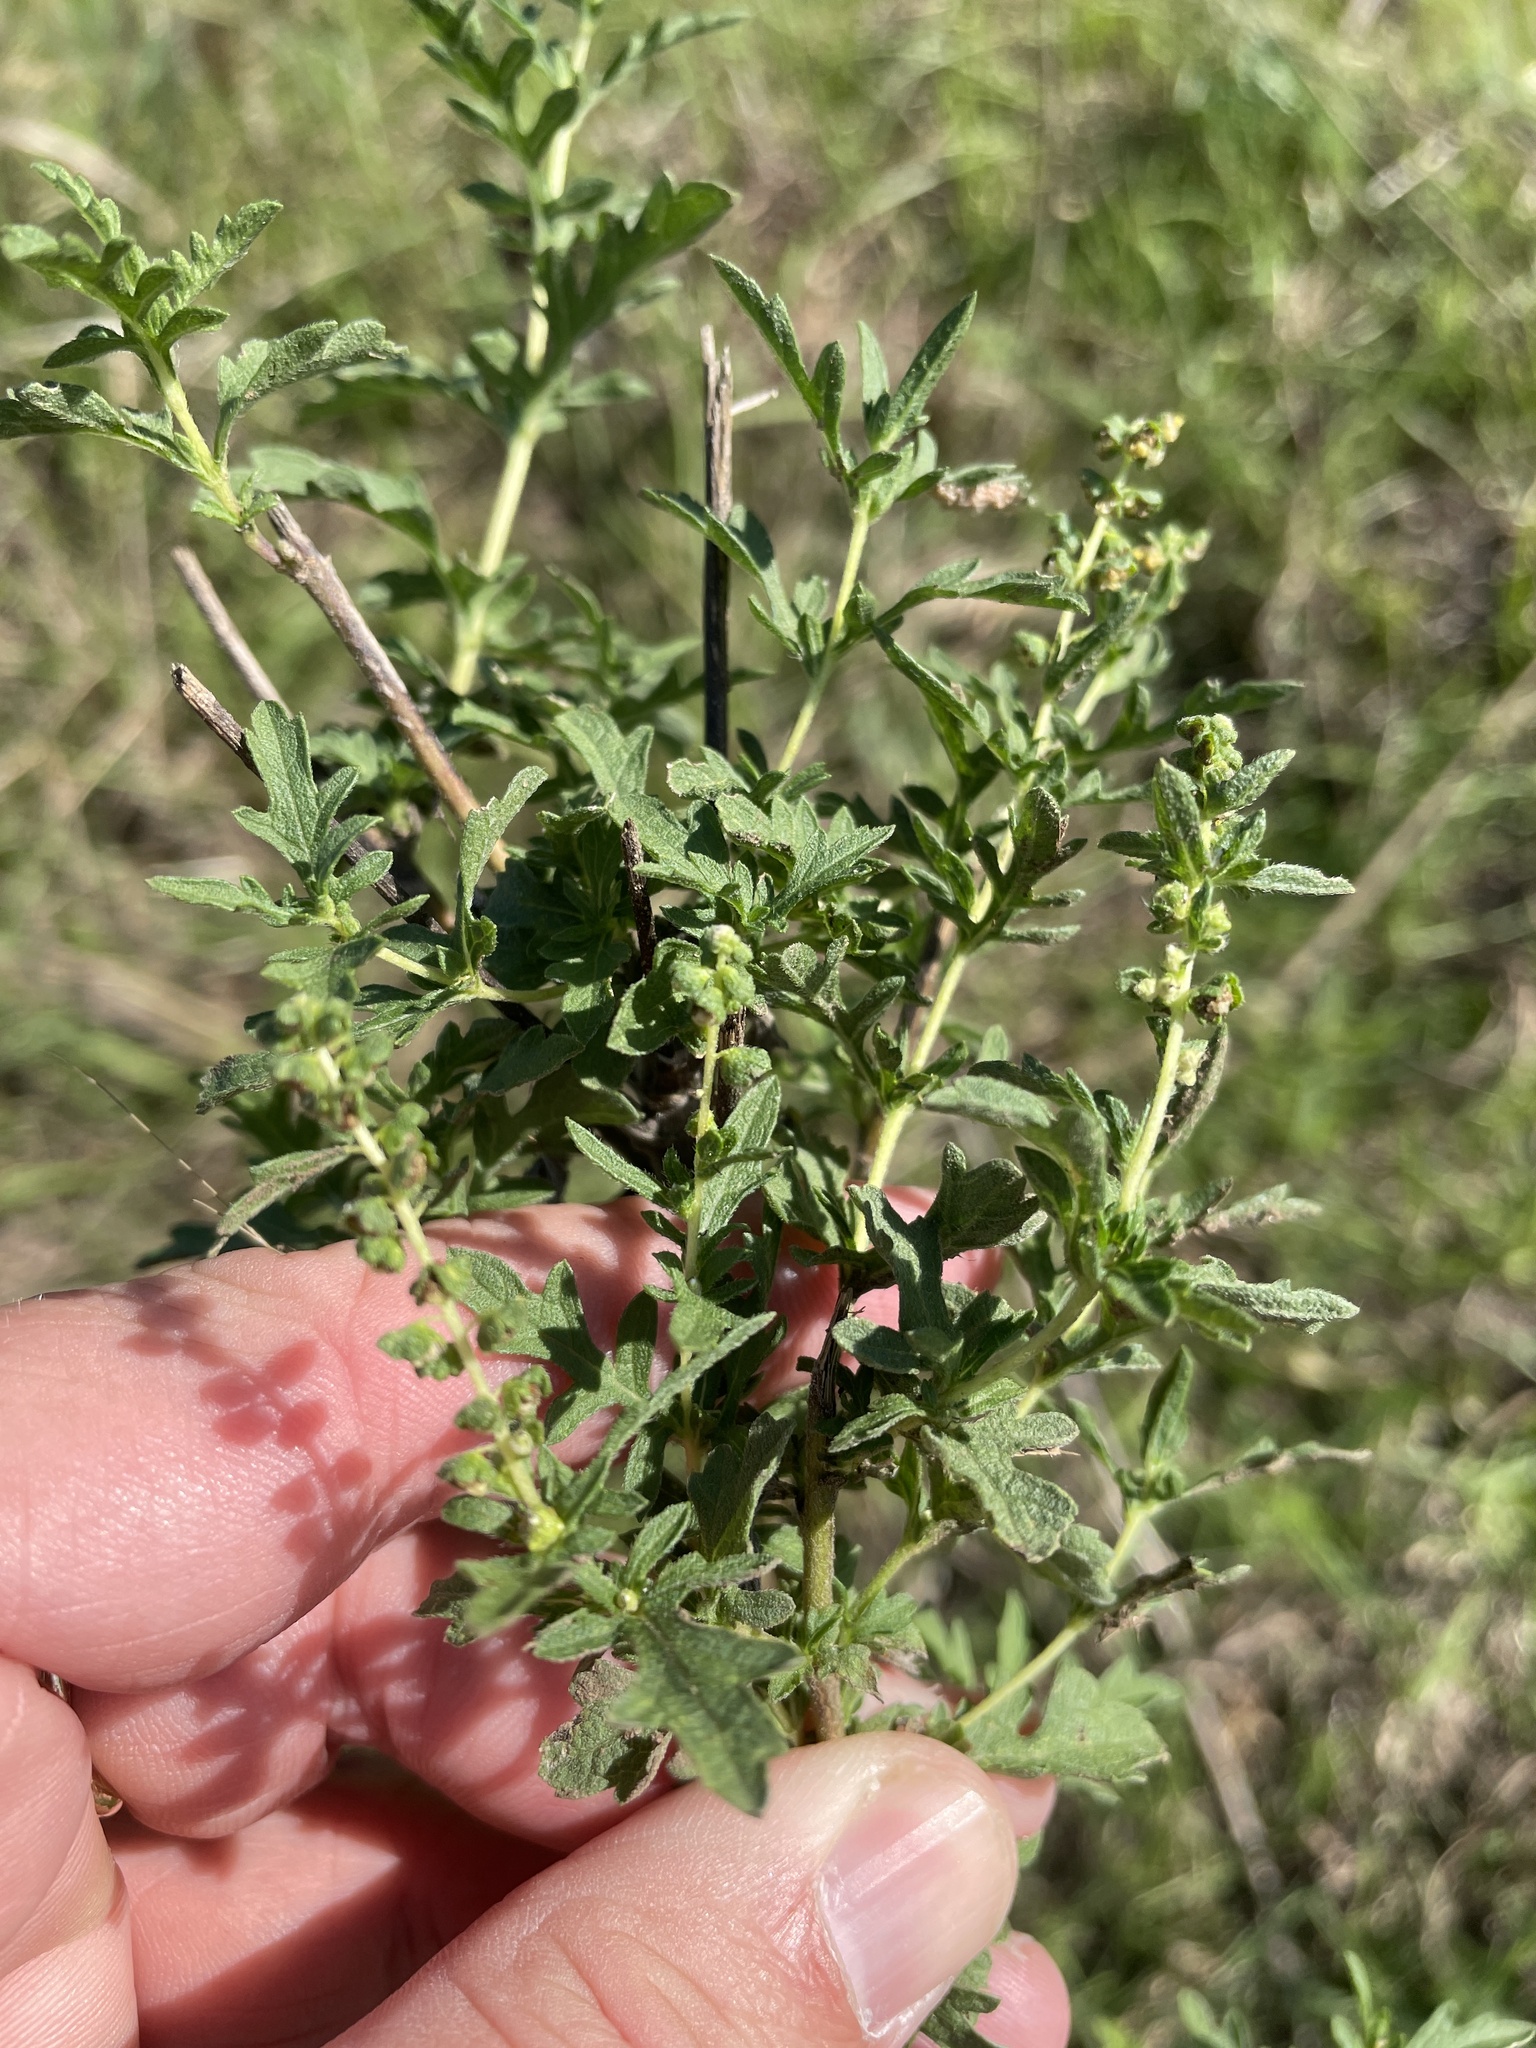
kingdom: Plantae
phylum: Tracheophyta
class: Magnoliopsida
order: Asterales
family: Asteraceae
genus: Ambrosia
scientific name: Ambrosia psilostachya
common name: Perennial ragweed
